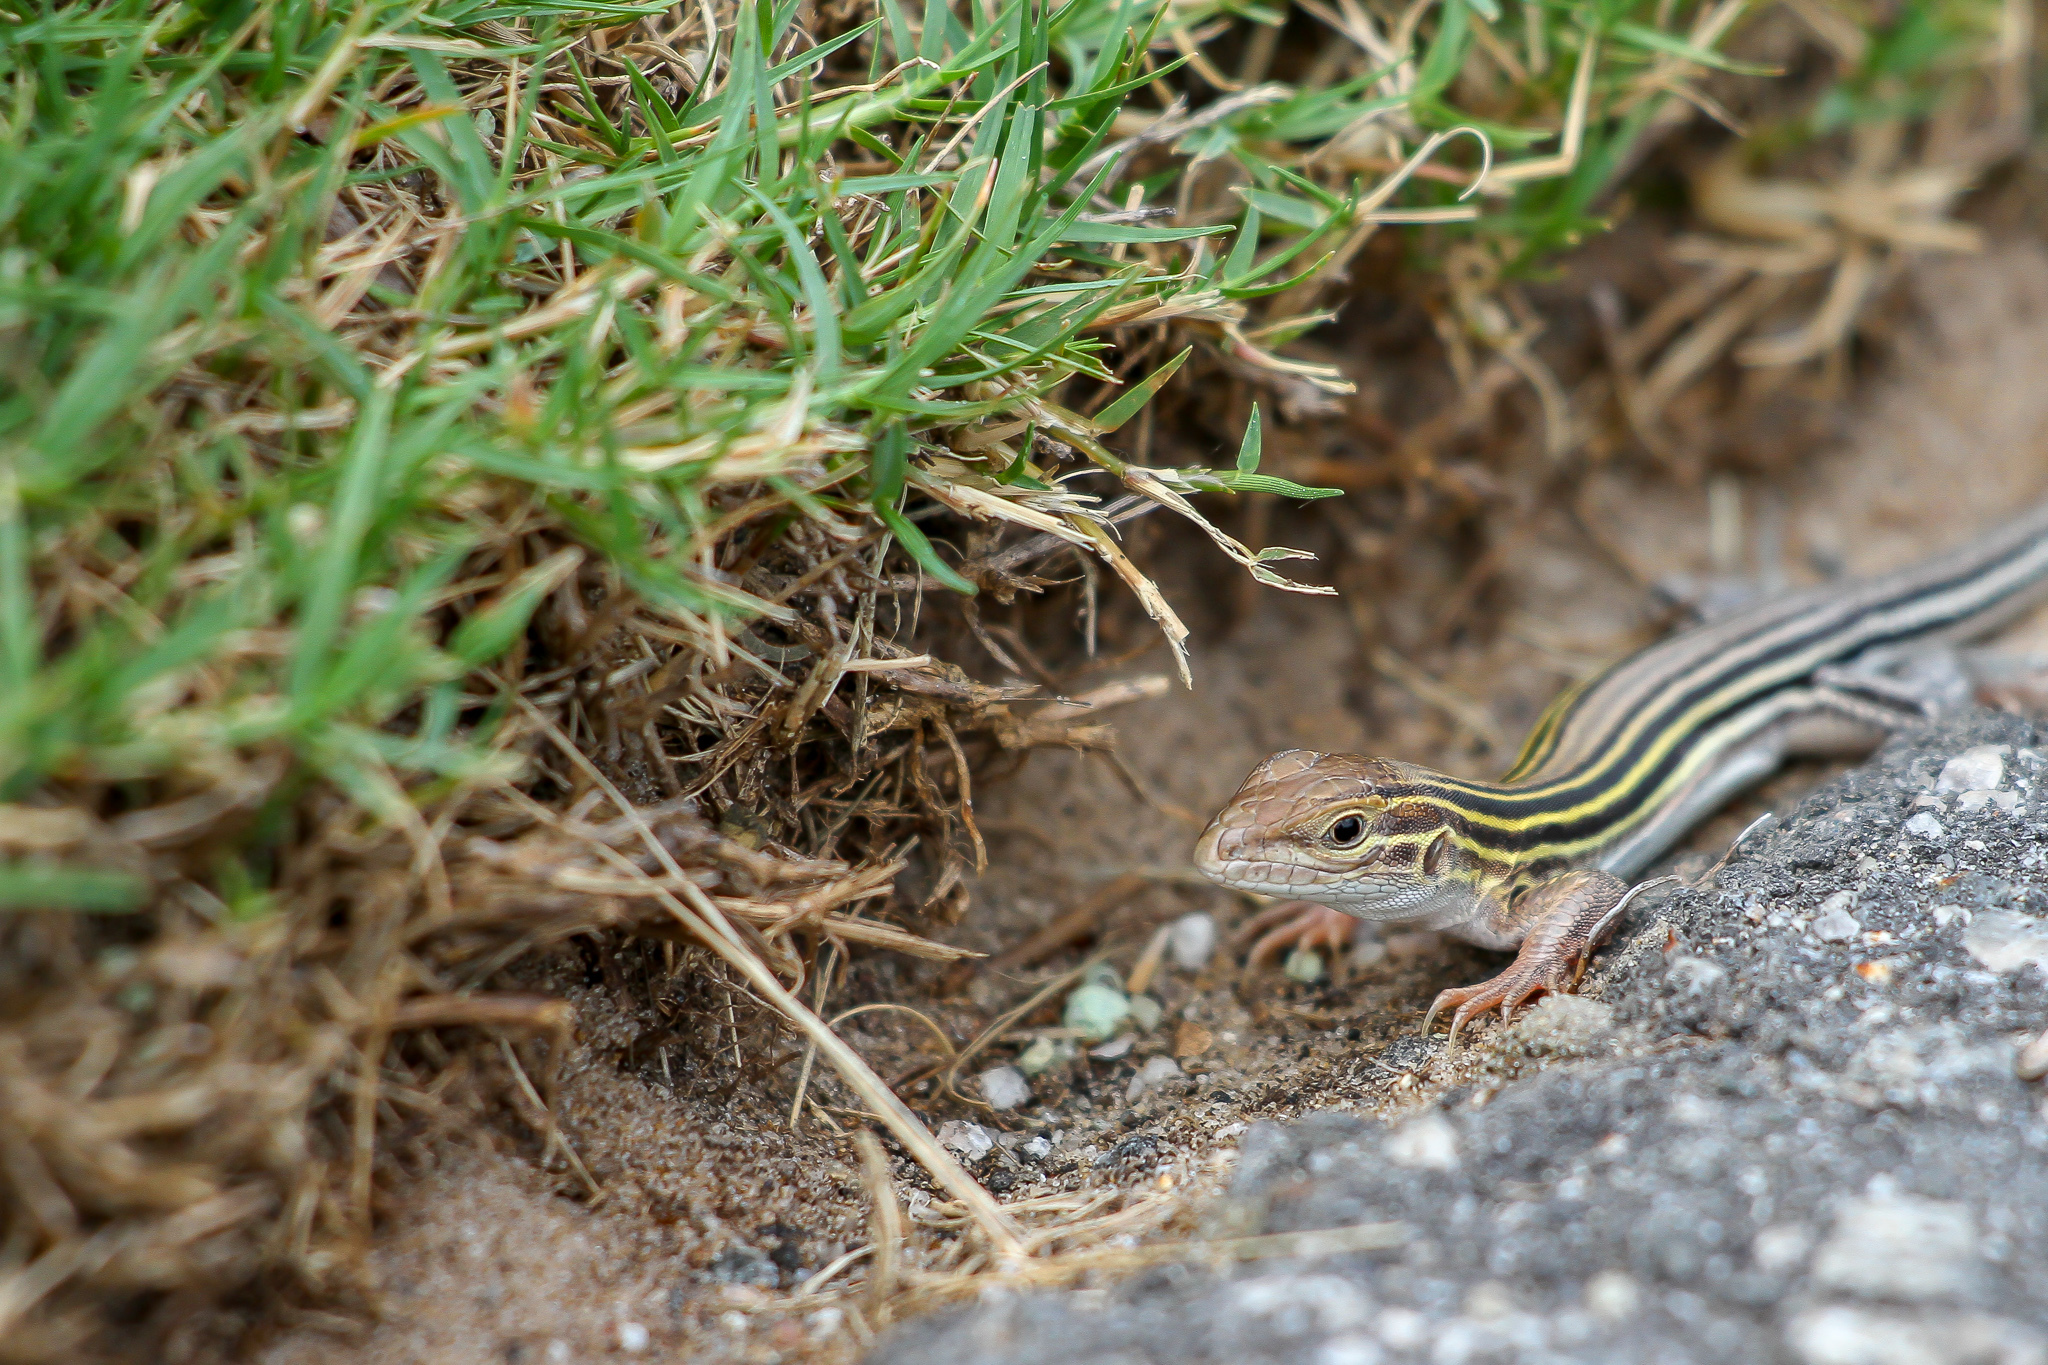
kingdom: Animalia
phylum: Chordata
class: Squamata
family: Teiidae
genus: Aspidoscelis
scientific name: Aspidoscelis sexlineatus
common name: Six-lined racerunner
